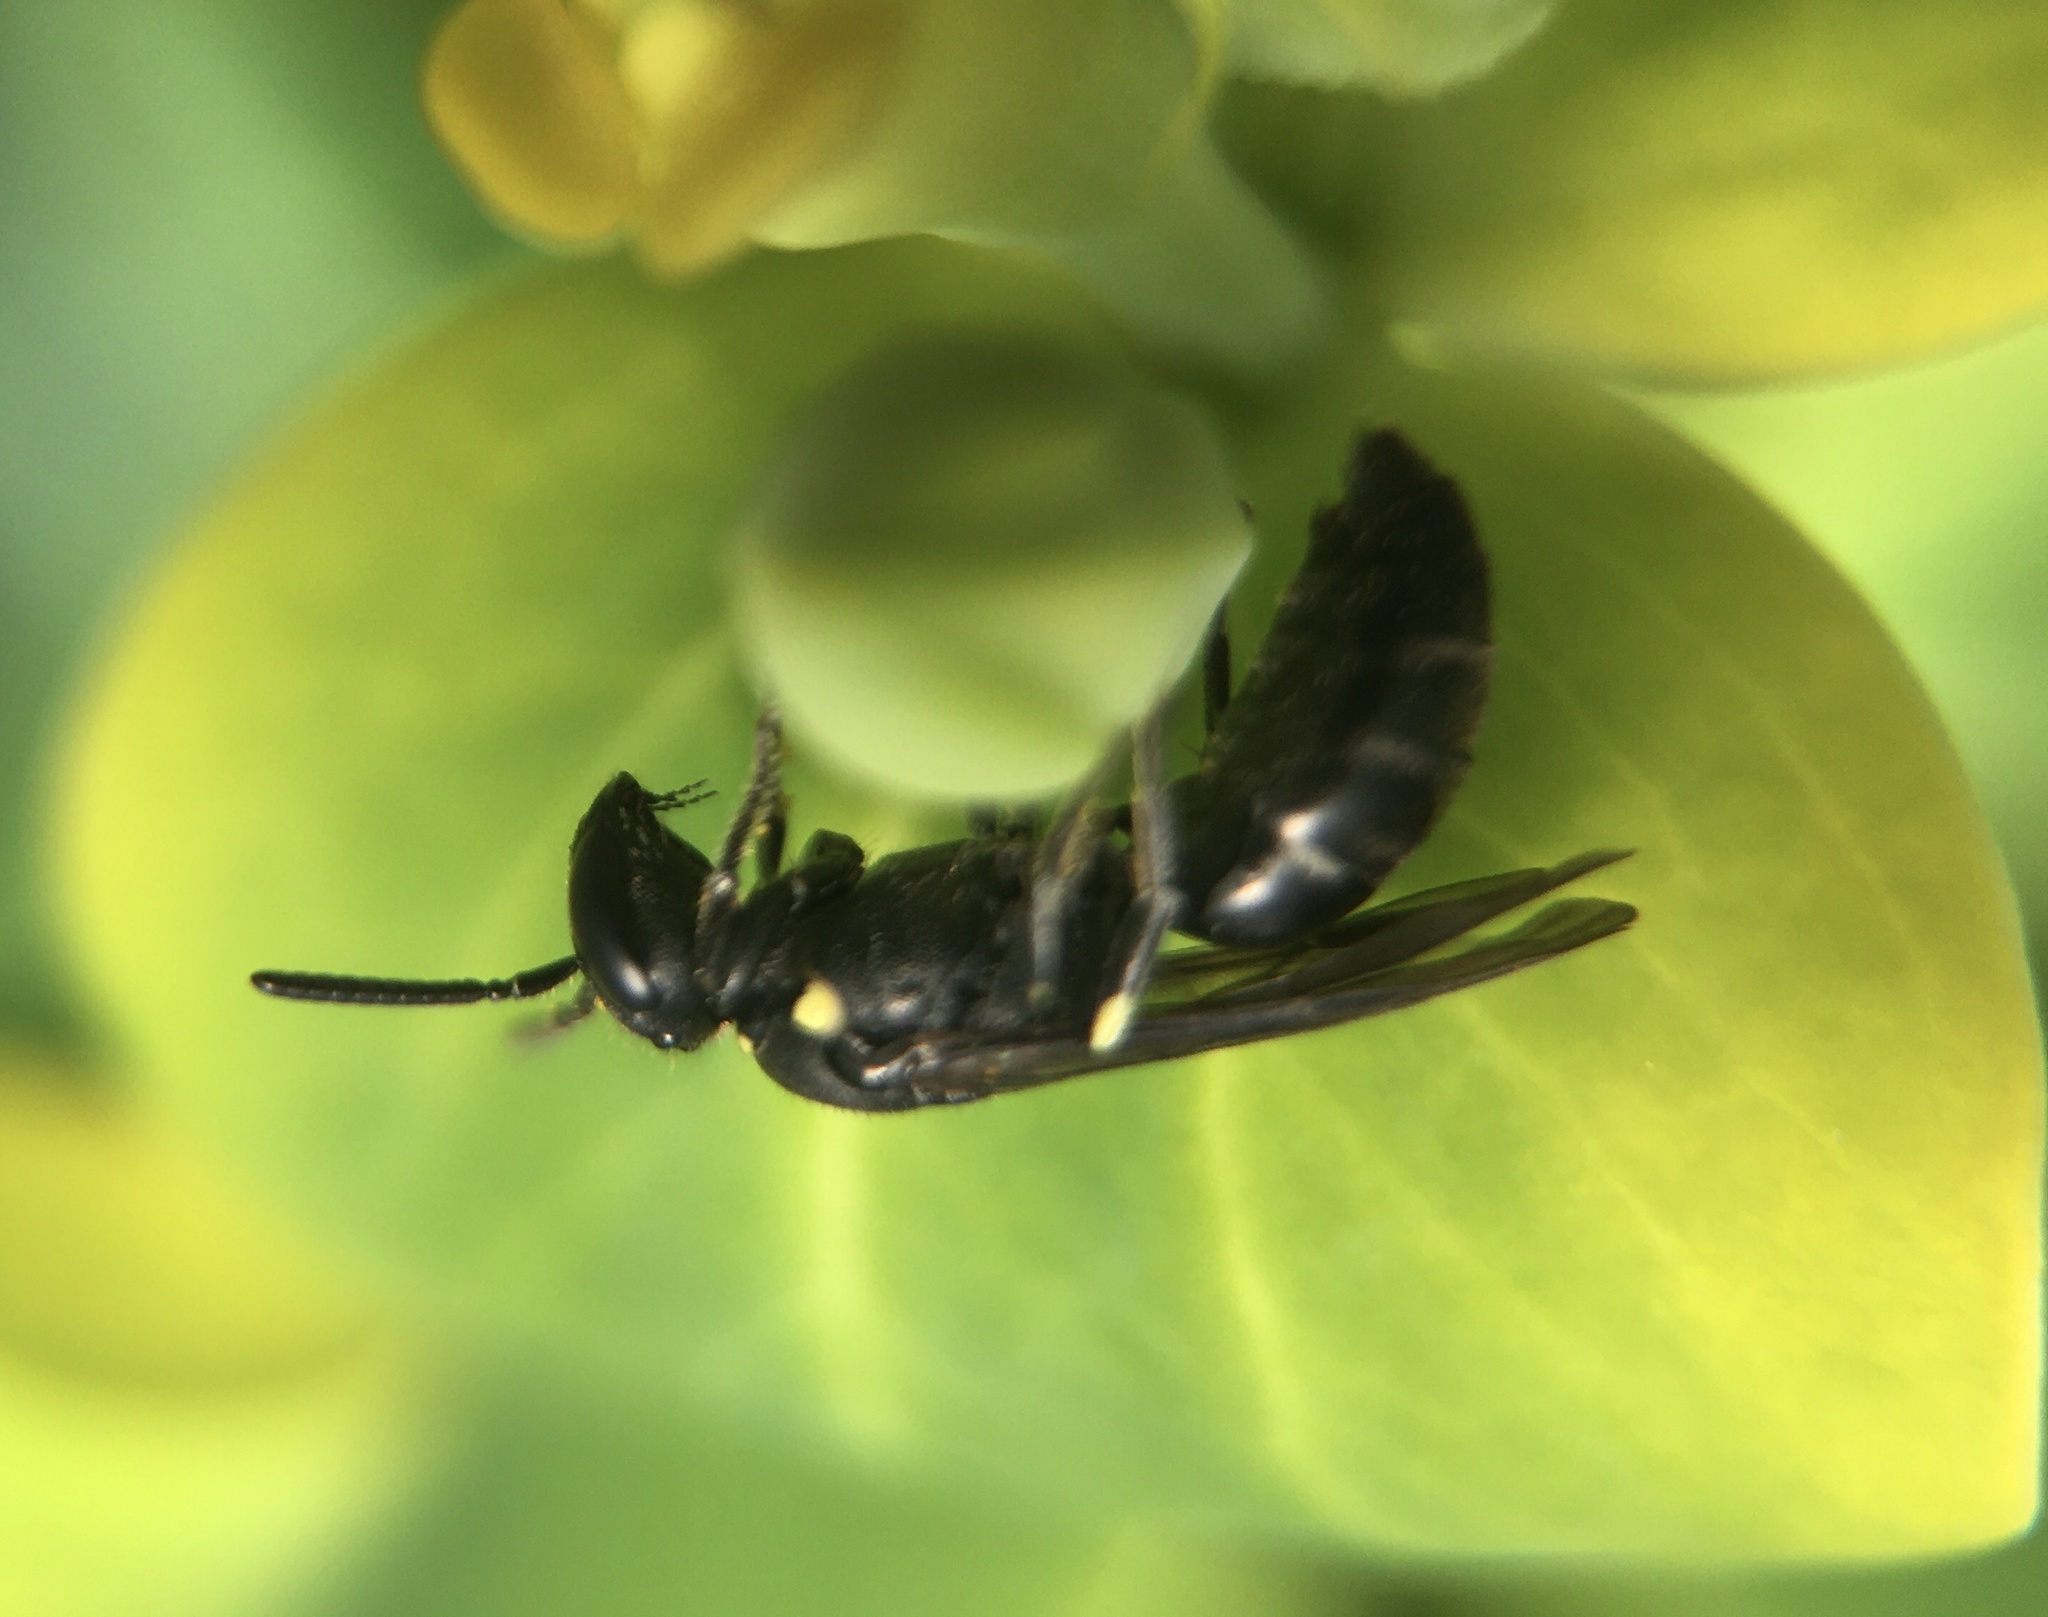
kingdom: Animalia
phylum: Arthropoda
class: Insecta
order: Hymenoptera
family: Colletidae
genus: Hylaeus
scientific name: Hylaeus
